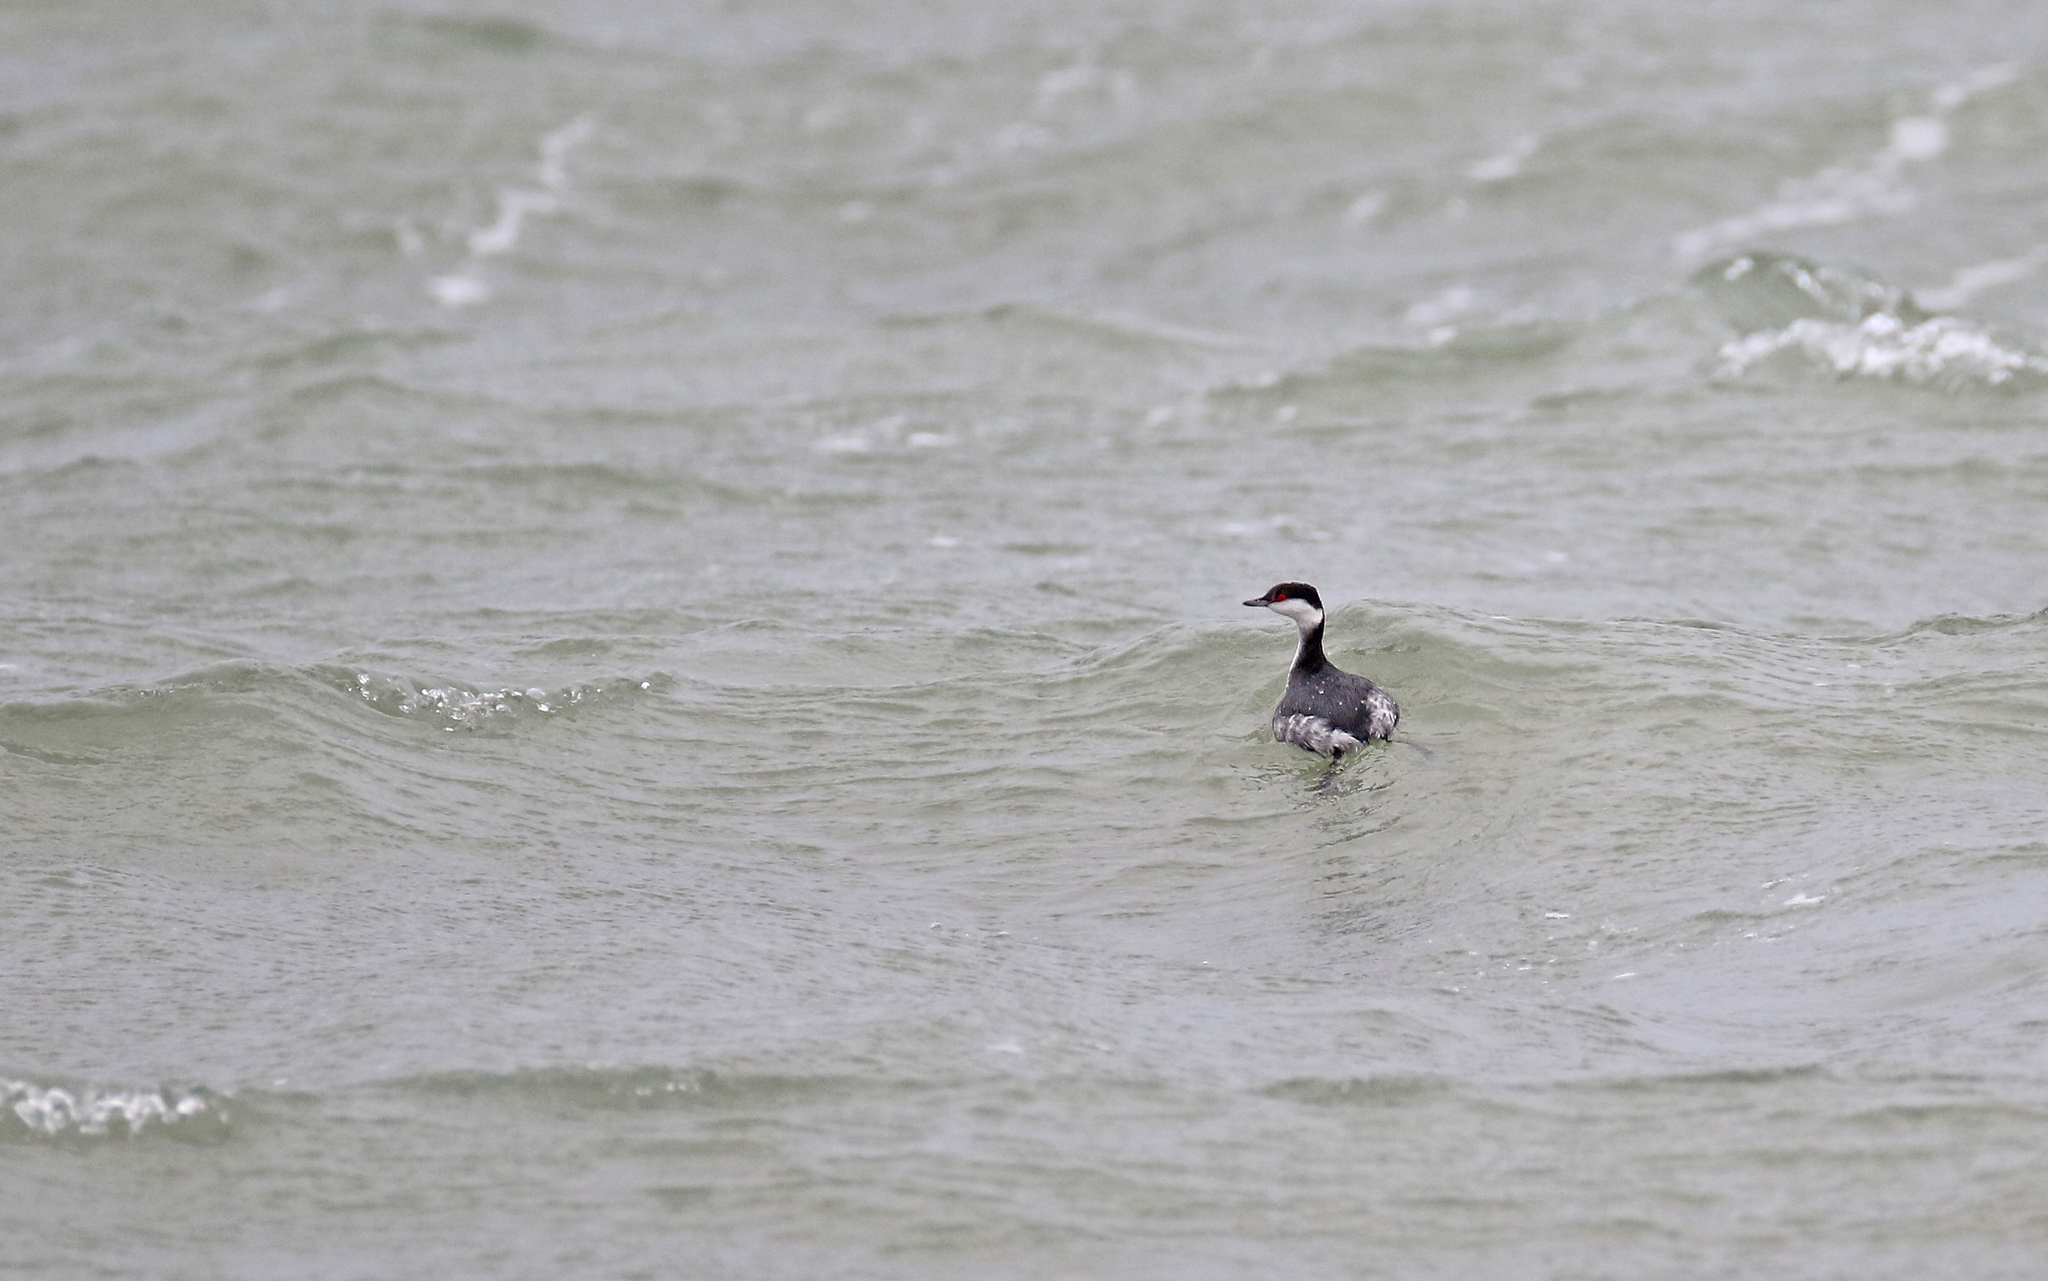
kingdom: Animalia
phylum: Chordata
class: Aves
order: Podicipediformes
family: Podicipedidae
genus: Podiceps
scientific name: Podiceps auritus
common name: Horned grebe
